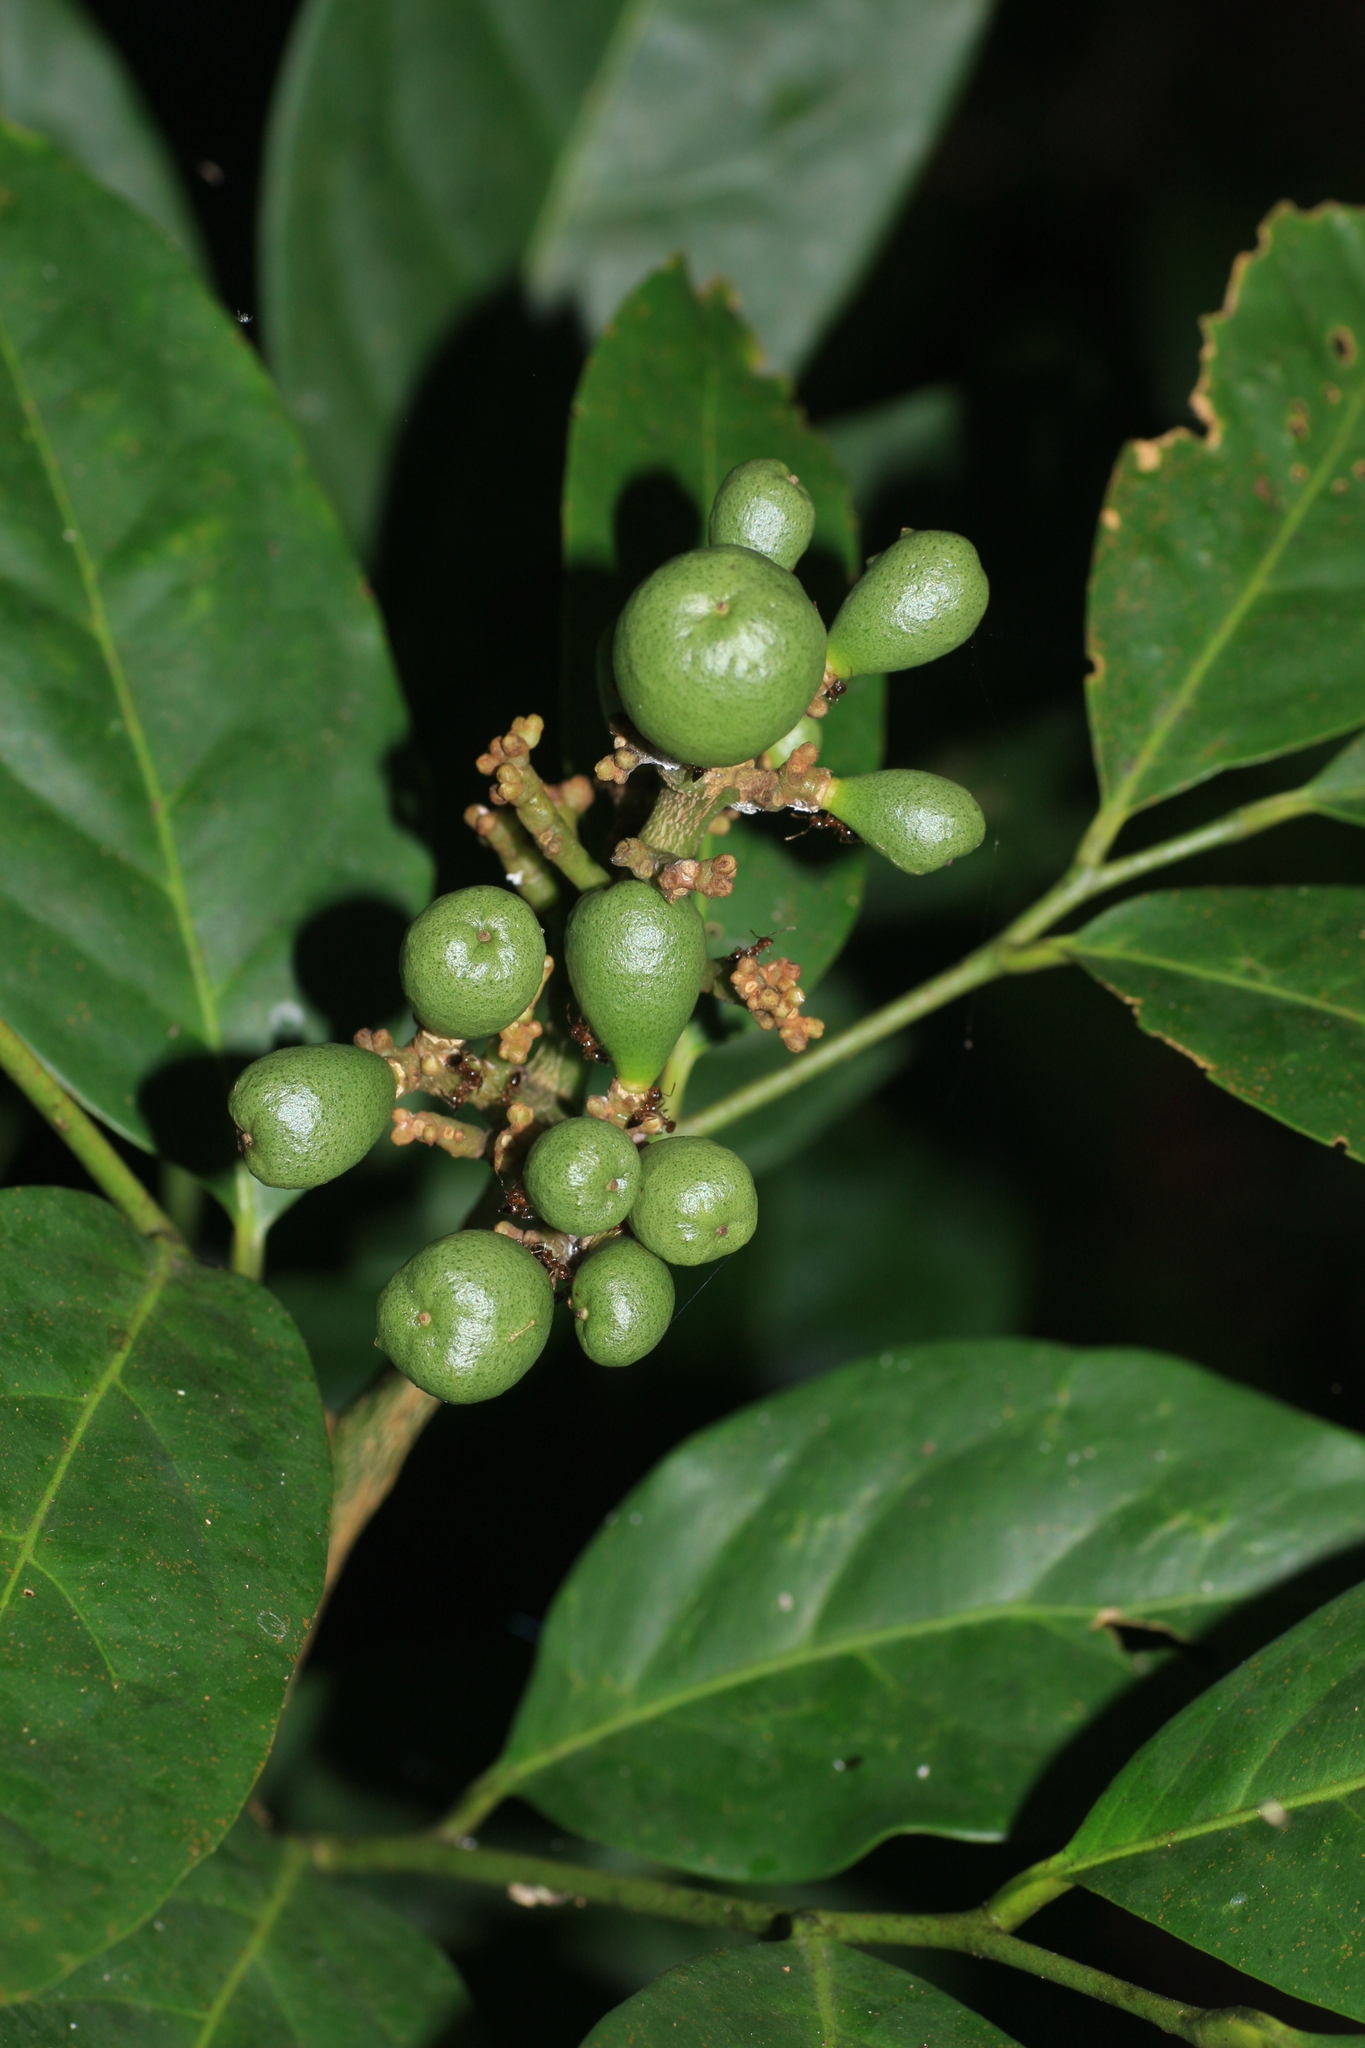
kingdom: Plantae
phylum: Tracheophyta
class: Magnoliopsida
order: Sapindales
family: Rutaceae
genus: Glycosmis
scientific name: Glycosmis pentaphylla
